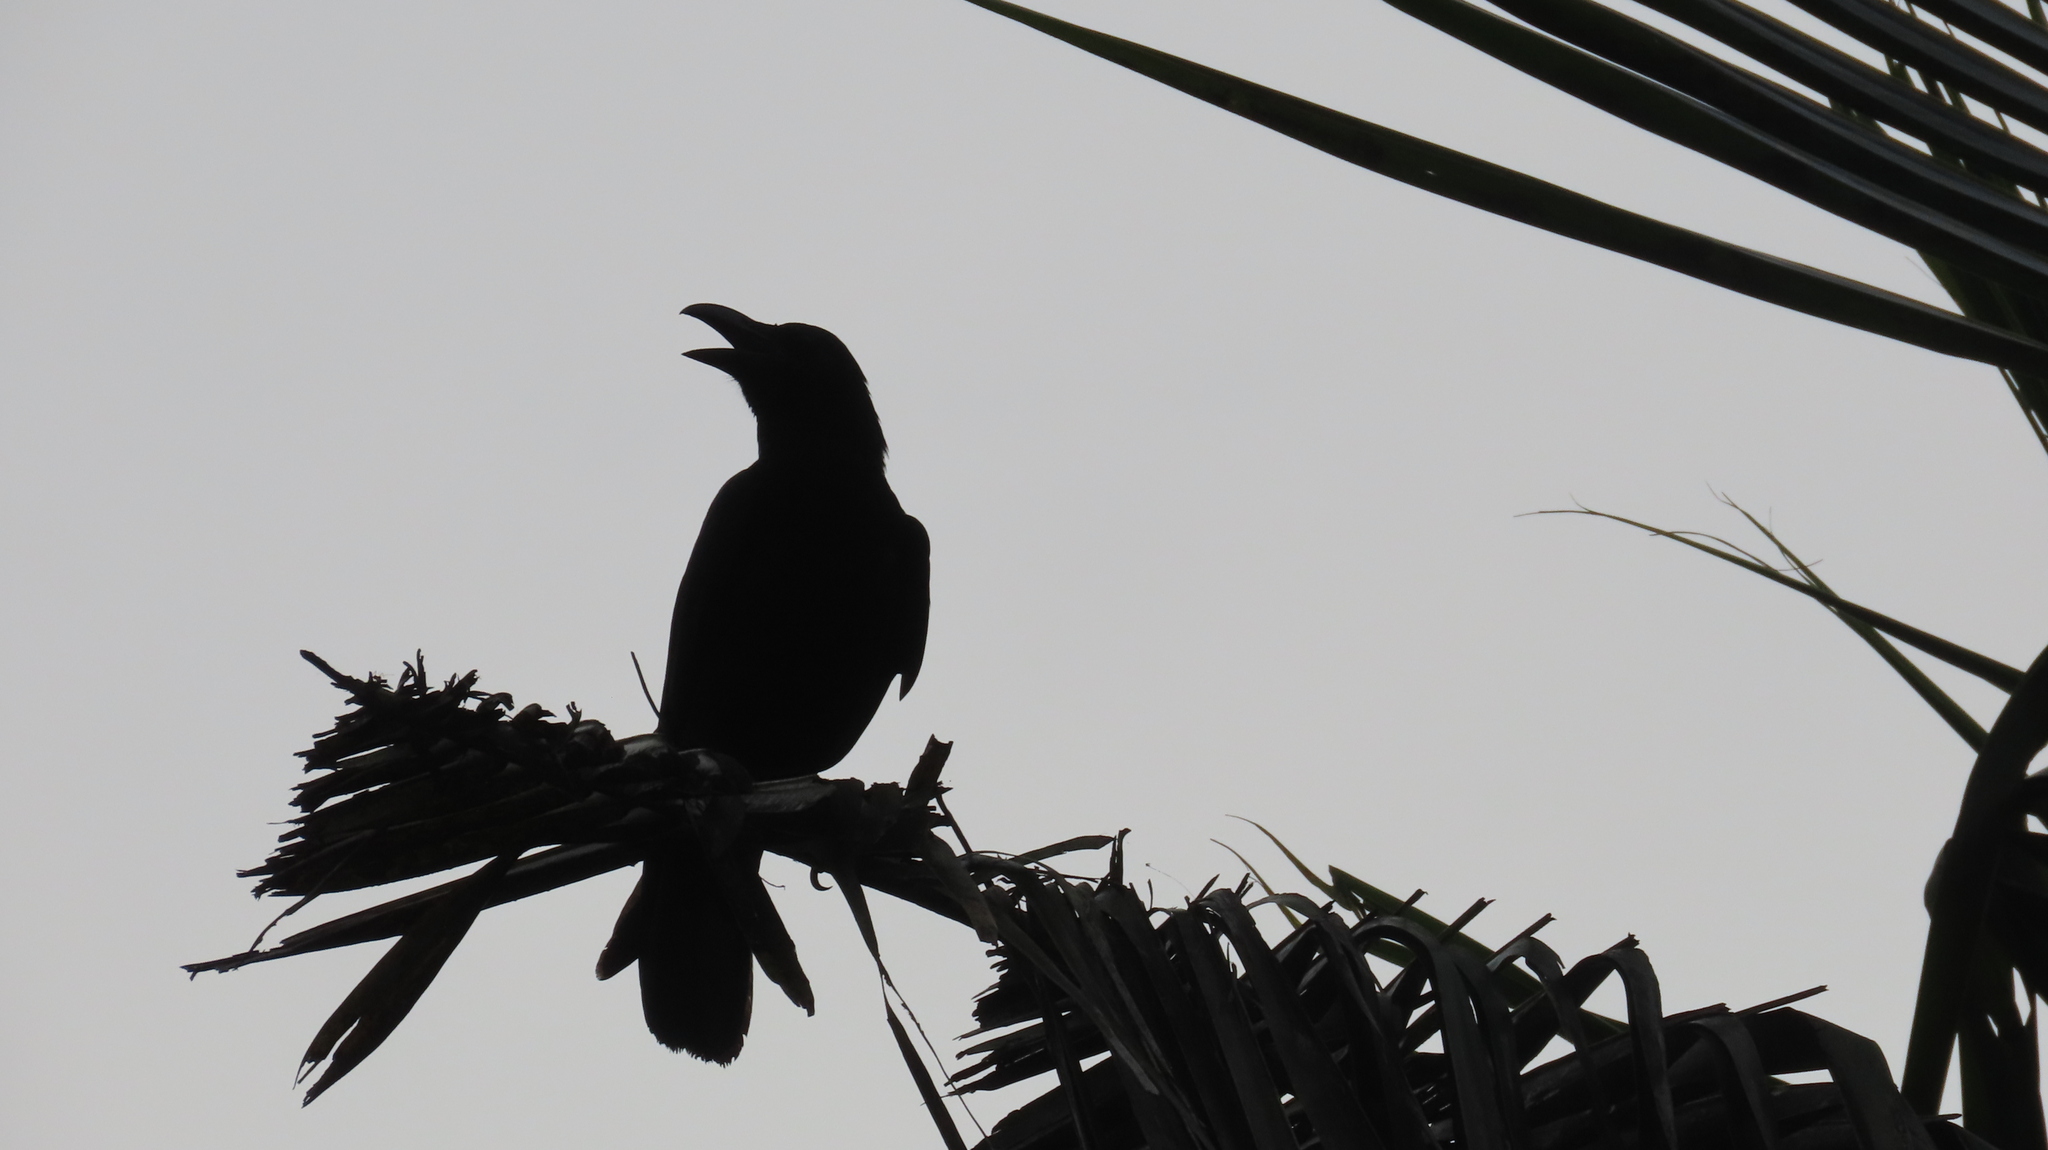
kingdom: Animalia
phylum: Chordata
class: Aves
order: Passeriformes
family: Corvidae
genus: Corvus
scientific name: Corvus macrorhynchos
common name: Large-billed crow
